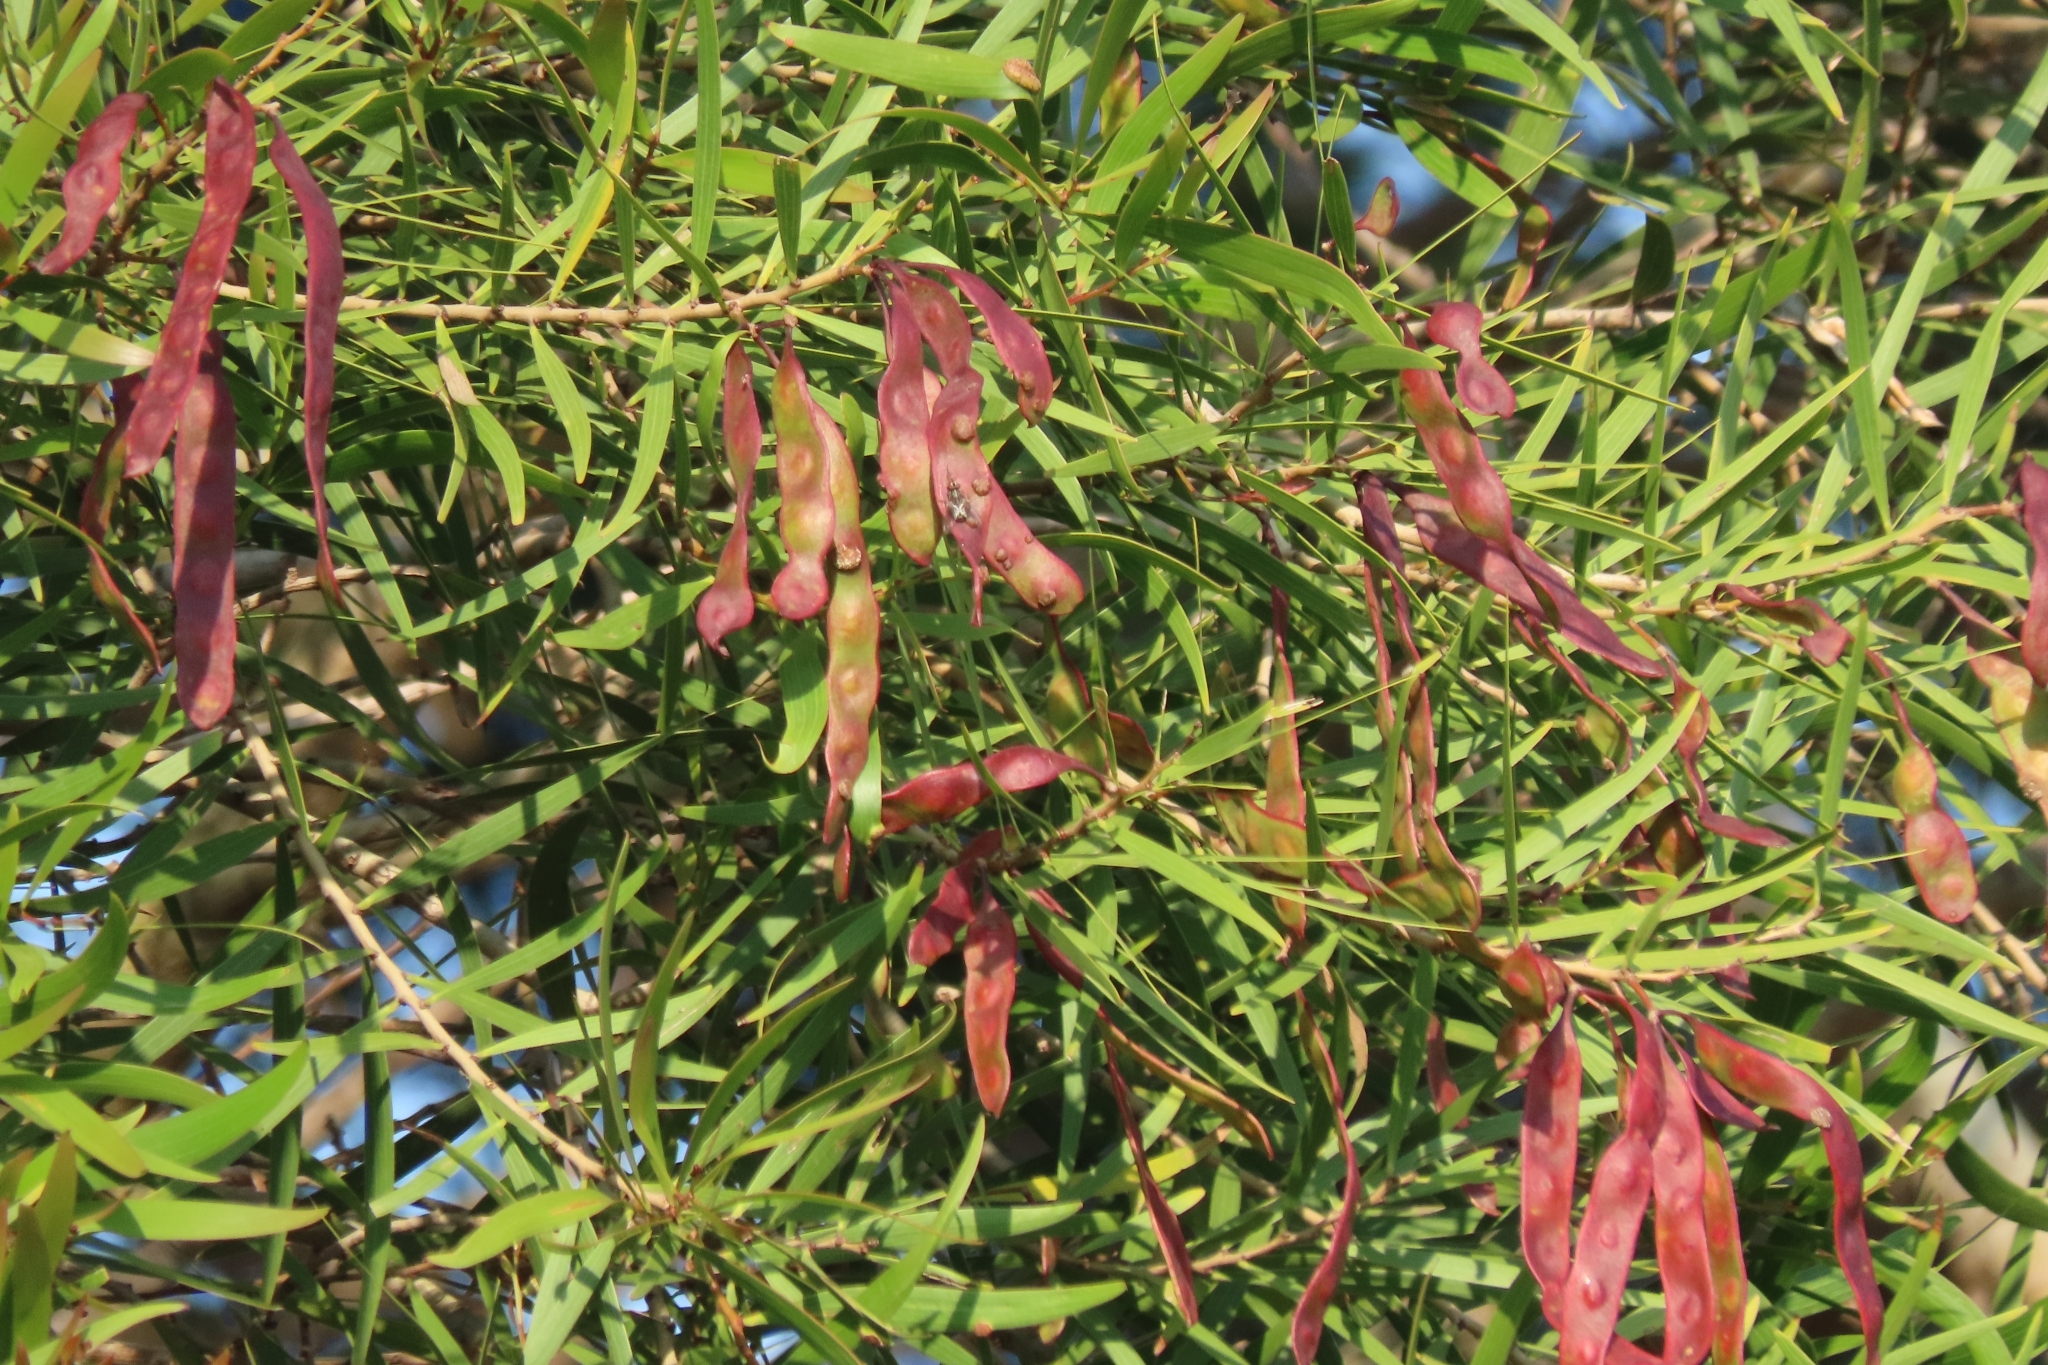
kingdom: Plantae
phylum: Tracheophyta
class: Magnoliopsida
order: Fabales
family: Fabaceae
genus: Acacia
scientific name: Acacia confusa
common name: Formosan koa
